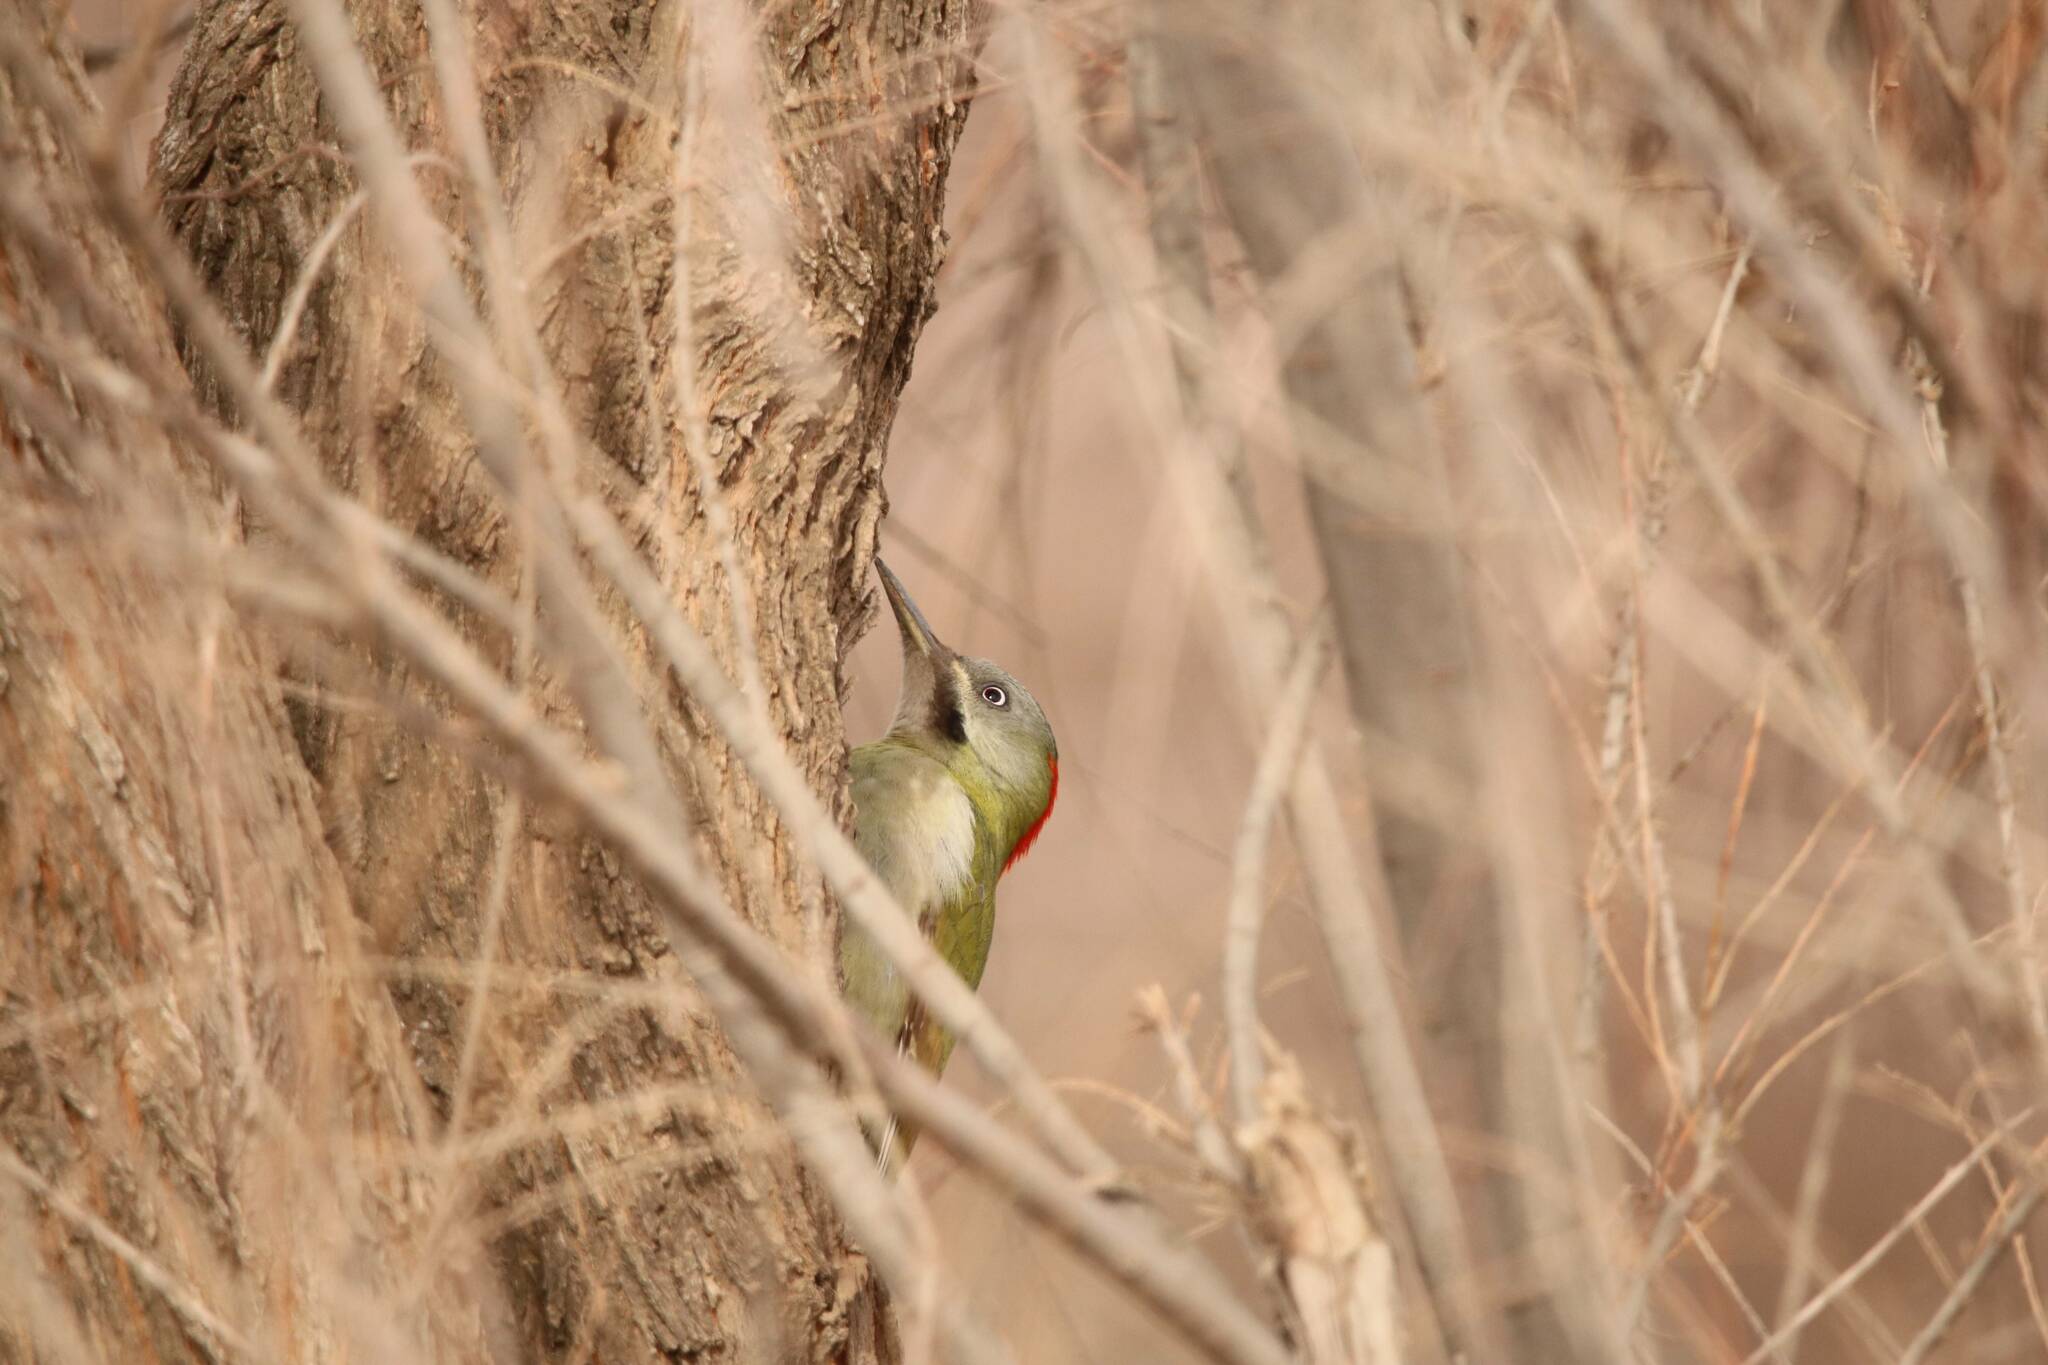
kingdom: Animalia
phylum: Chordata
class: Aves
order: Piciformes
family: Picidae
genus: Picus
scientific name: Picus vaillantii
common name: Levaillant's woodpecker
